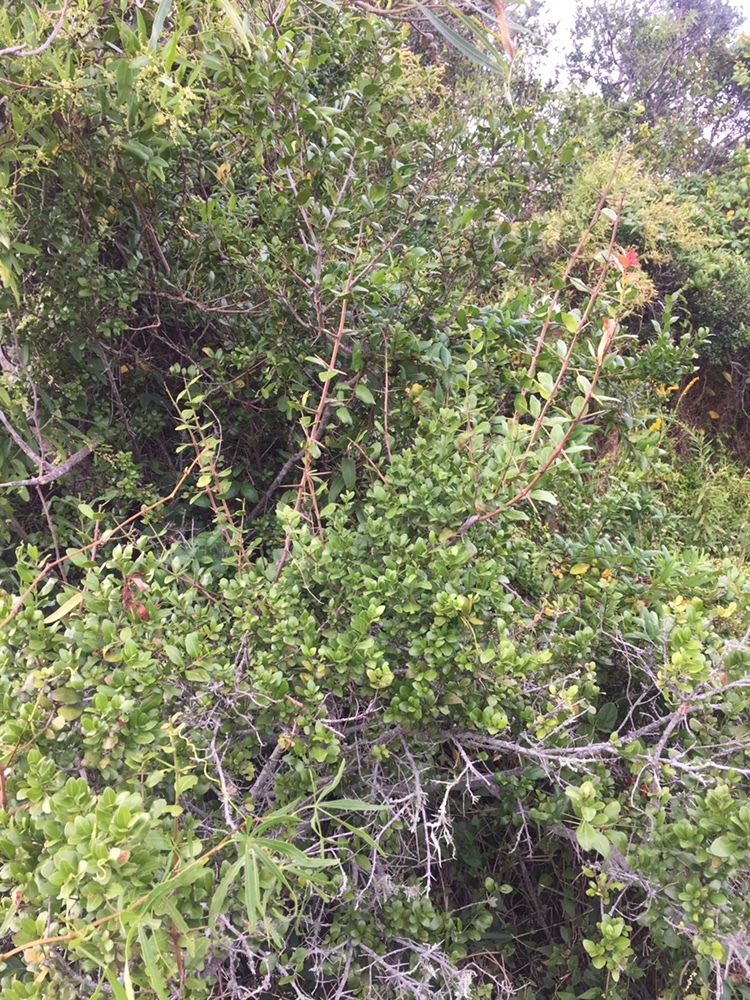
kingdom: Plantae
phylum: Tracheophyta
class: Magnoliopsida
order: Rosales
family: Rhamnaceae
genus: Scutia
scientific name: Scutia buxifolia
